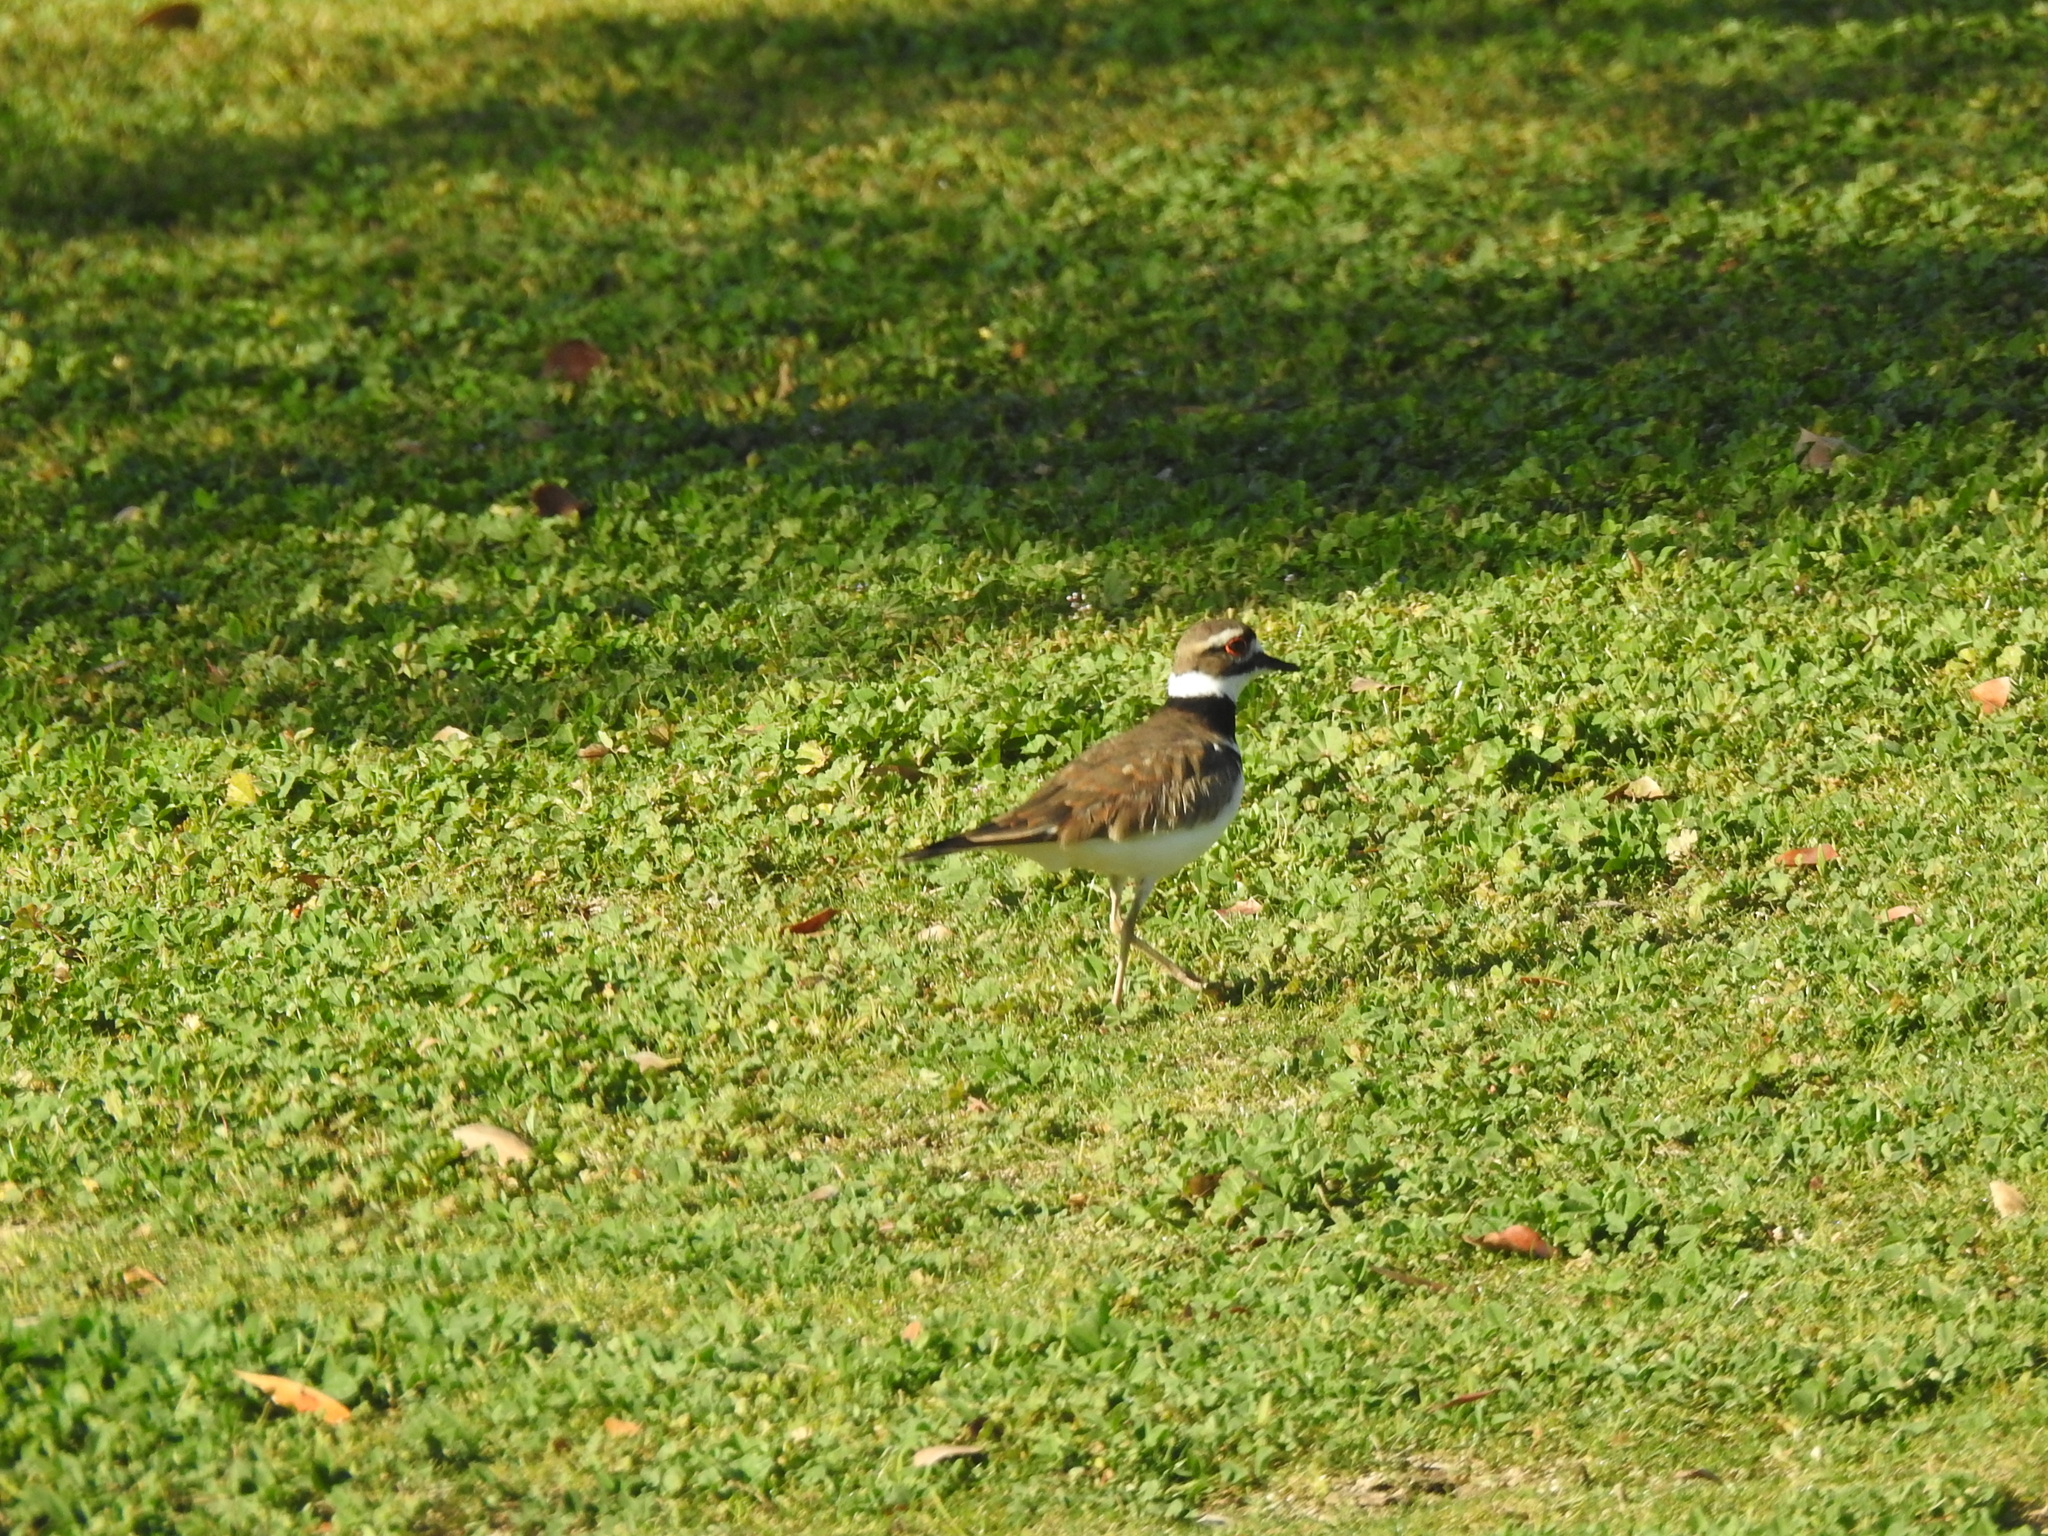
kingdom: Animalia
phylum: Chordata
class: Aves
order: Charadriiformes
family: Charadriidae
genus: Charadrius
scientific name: Charadrius vociferus
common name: Killdeer
